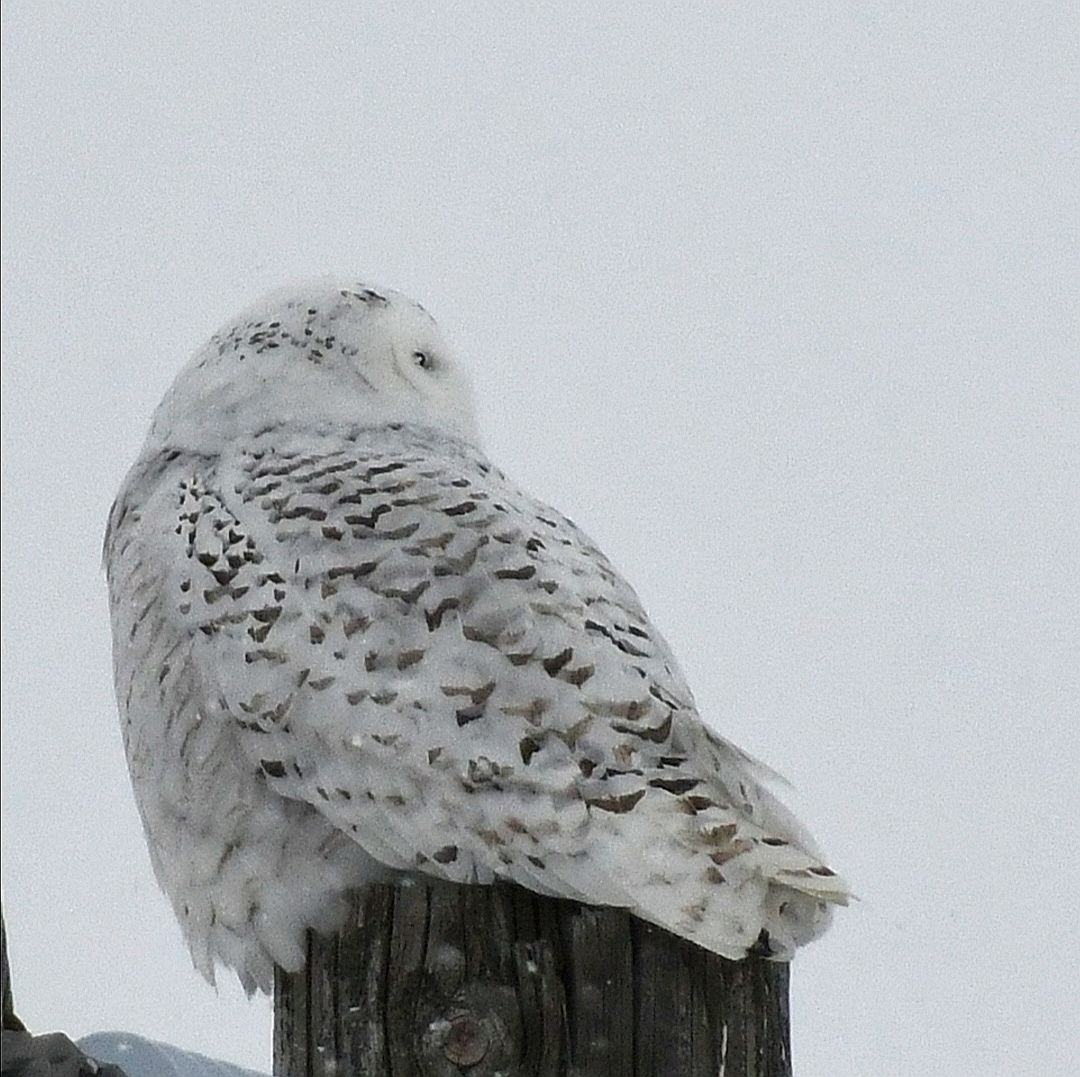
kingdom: Animalia
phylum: Chordata
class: Aves
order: Strigiformes
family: Strigidae
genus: Bubo
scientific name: Bubo scandiacus
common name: Snowy owl
